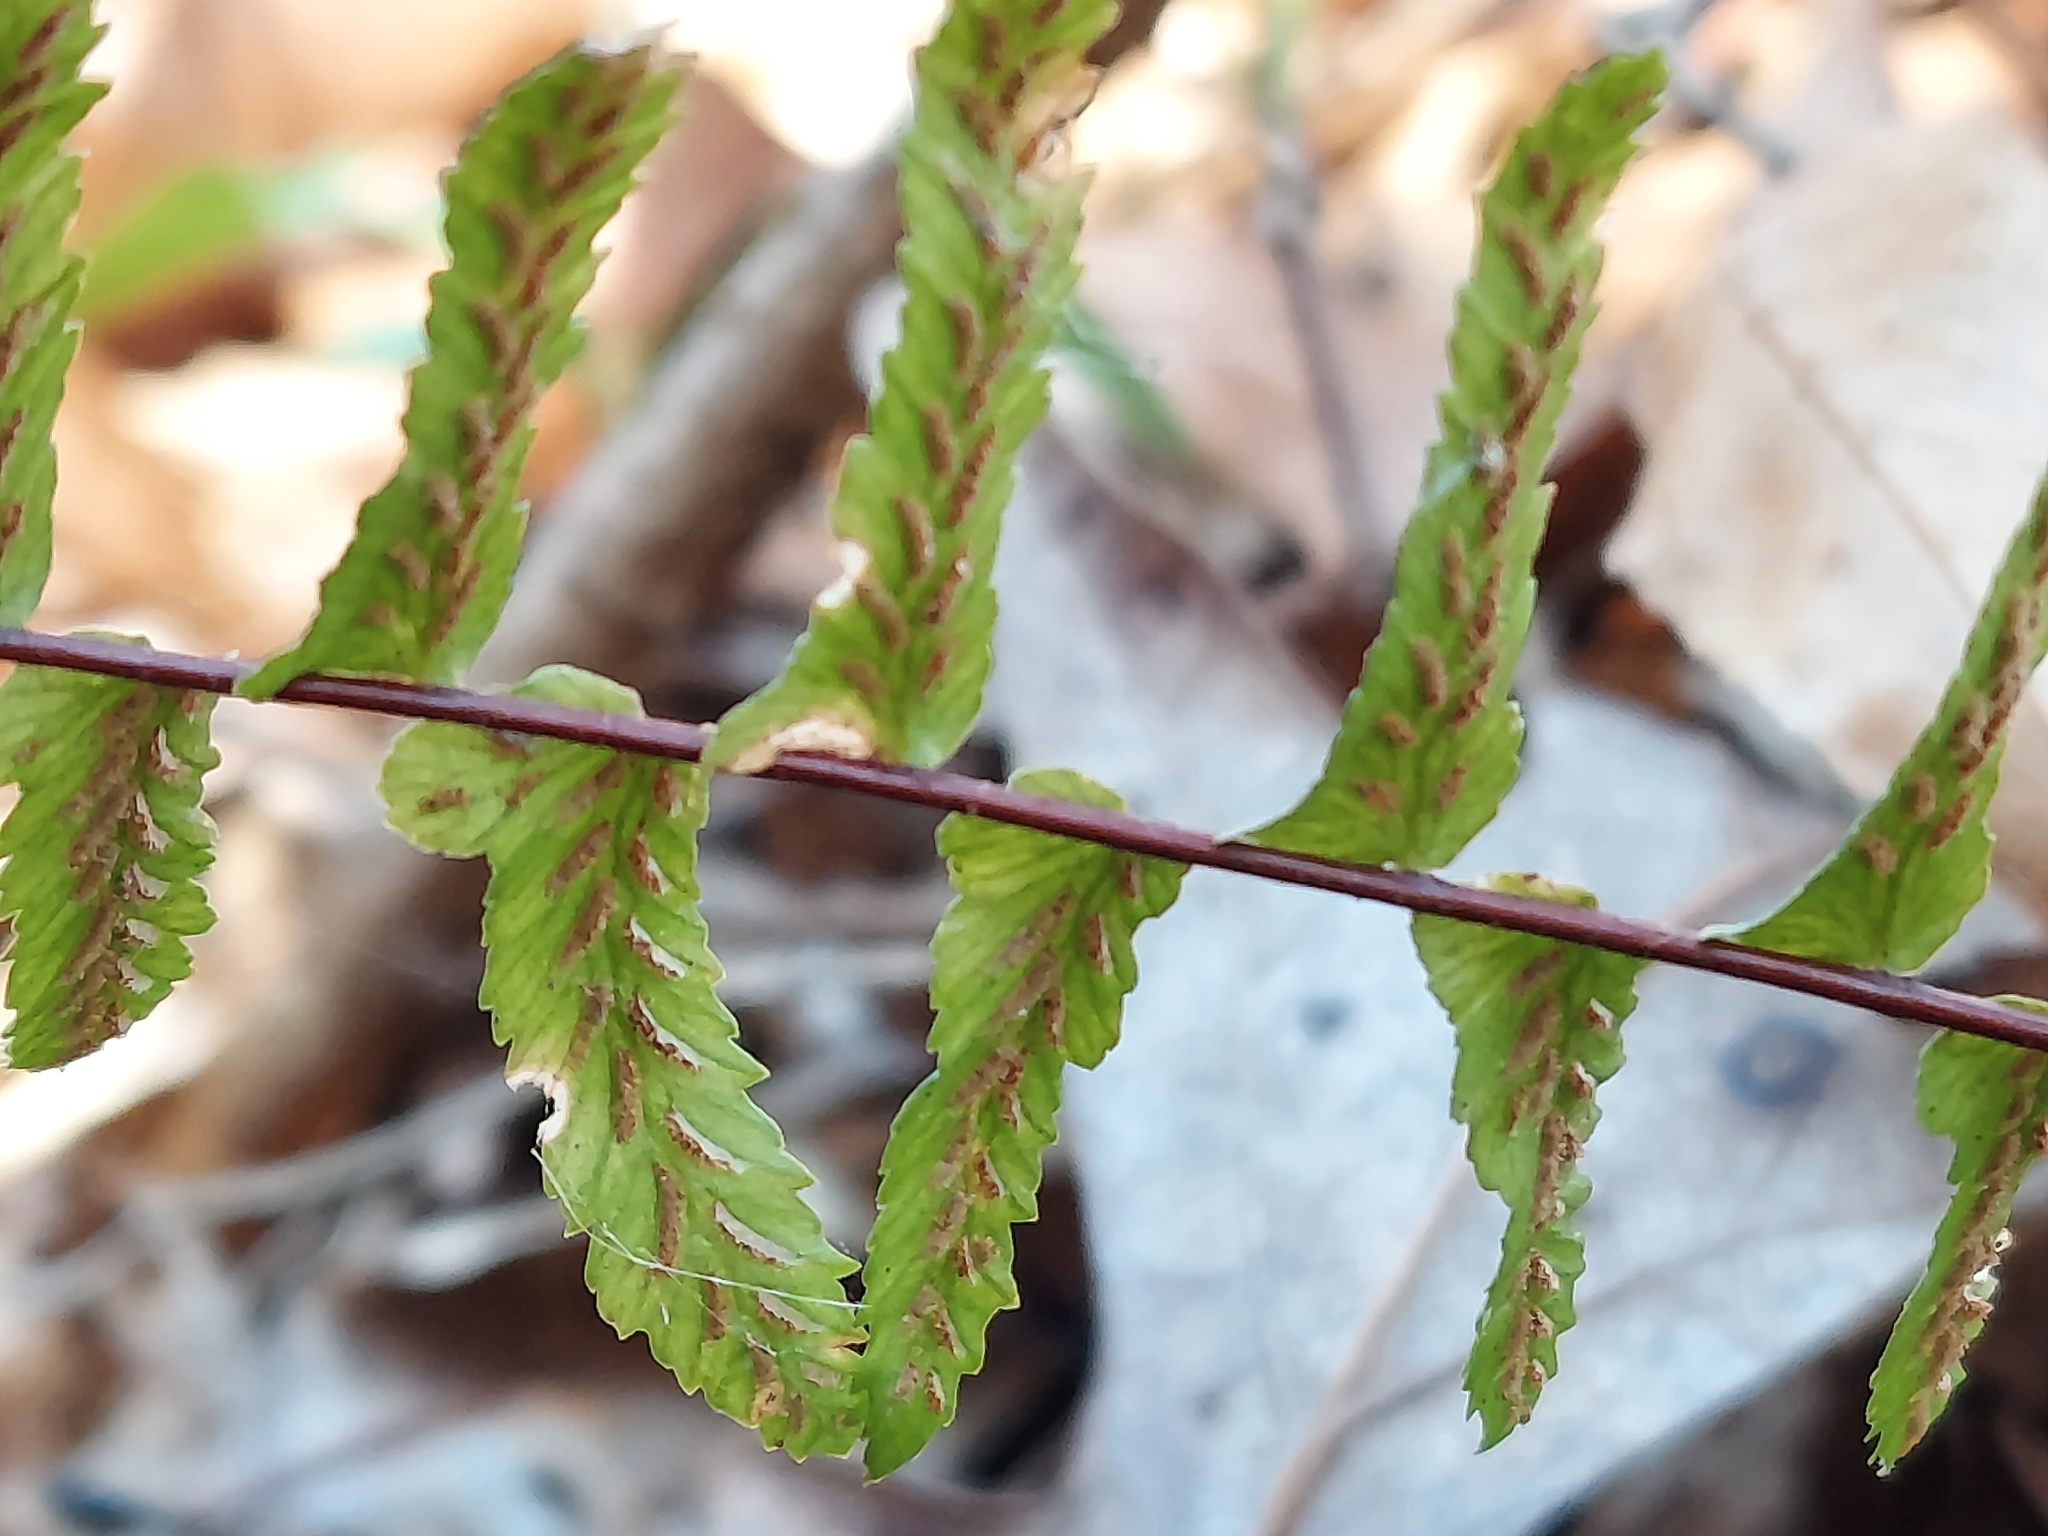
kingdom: Plantae
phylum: Tracheophyta
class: Polypodiopsida
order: Polypodiales
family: Aspleniaceae
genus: Asplenium
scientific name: Asplenium platyneuron
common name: Ebony spleenwort
